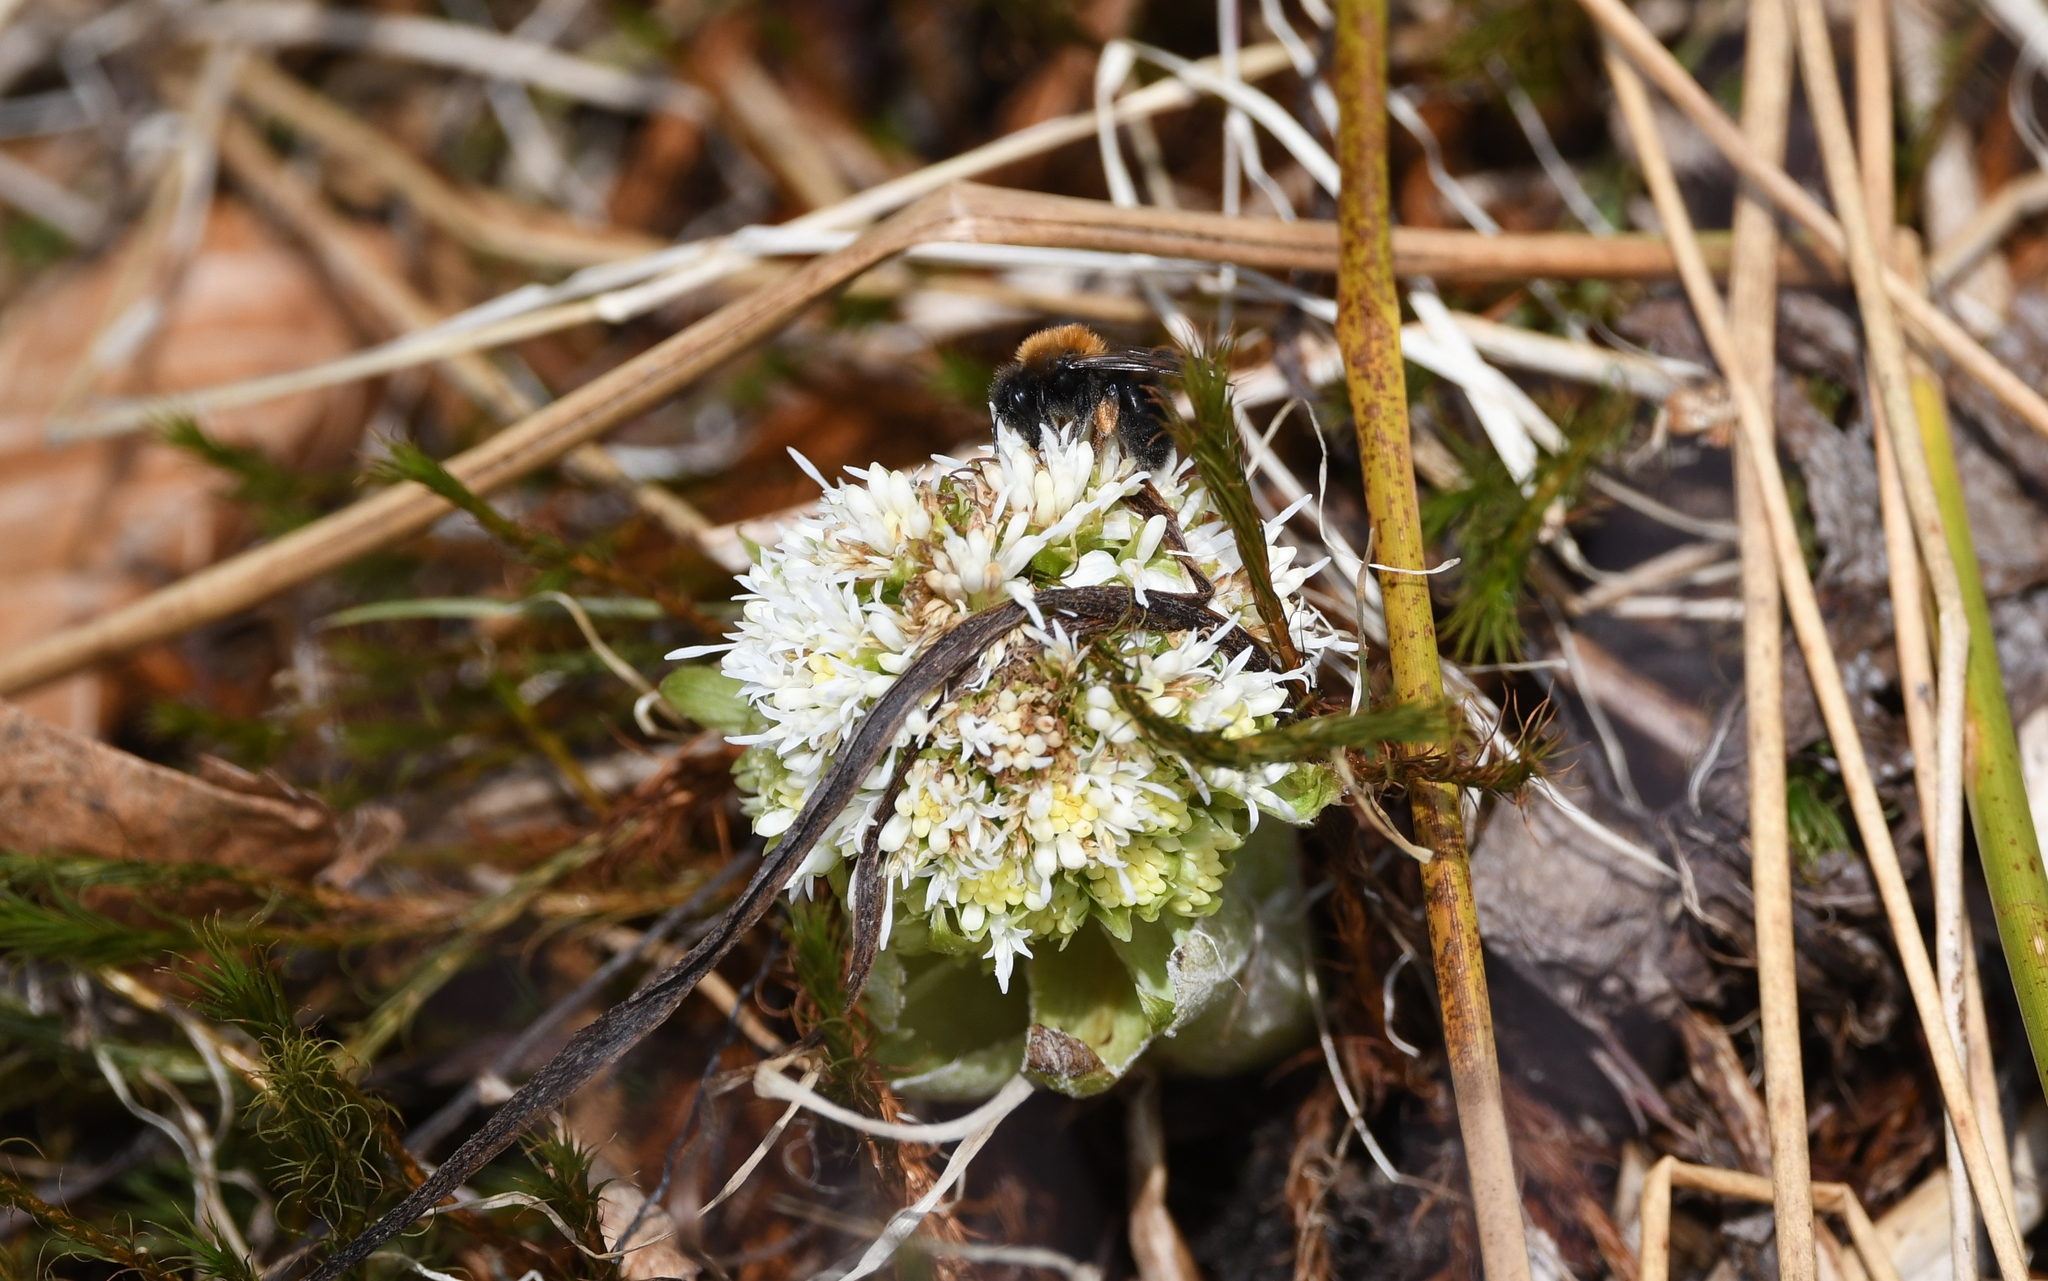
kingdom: Animalia
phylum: Arthropoda
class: Insecta
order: Hymenoptera
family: Andrenidae
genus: Andrena
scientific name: Andrena clarkella
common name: Clarke's mining bee
